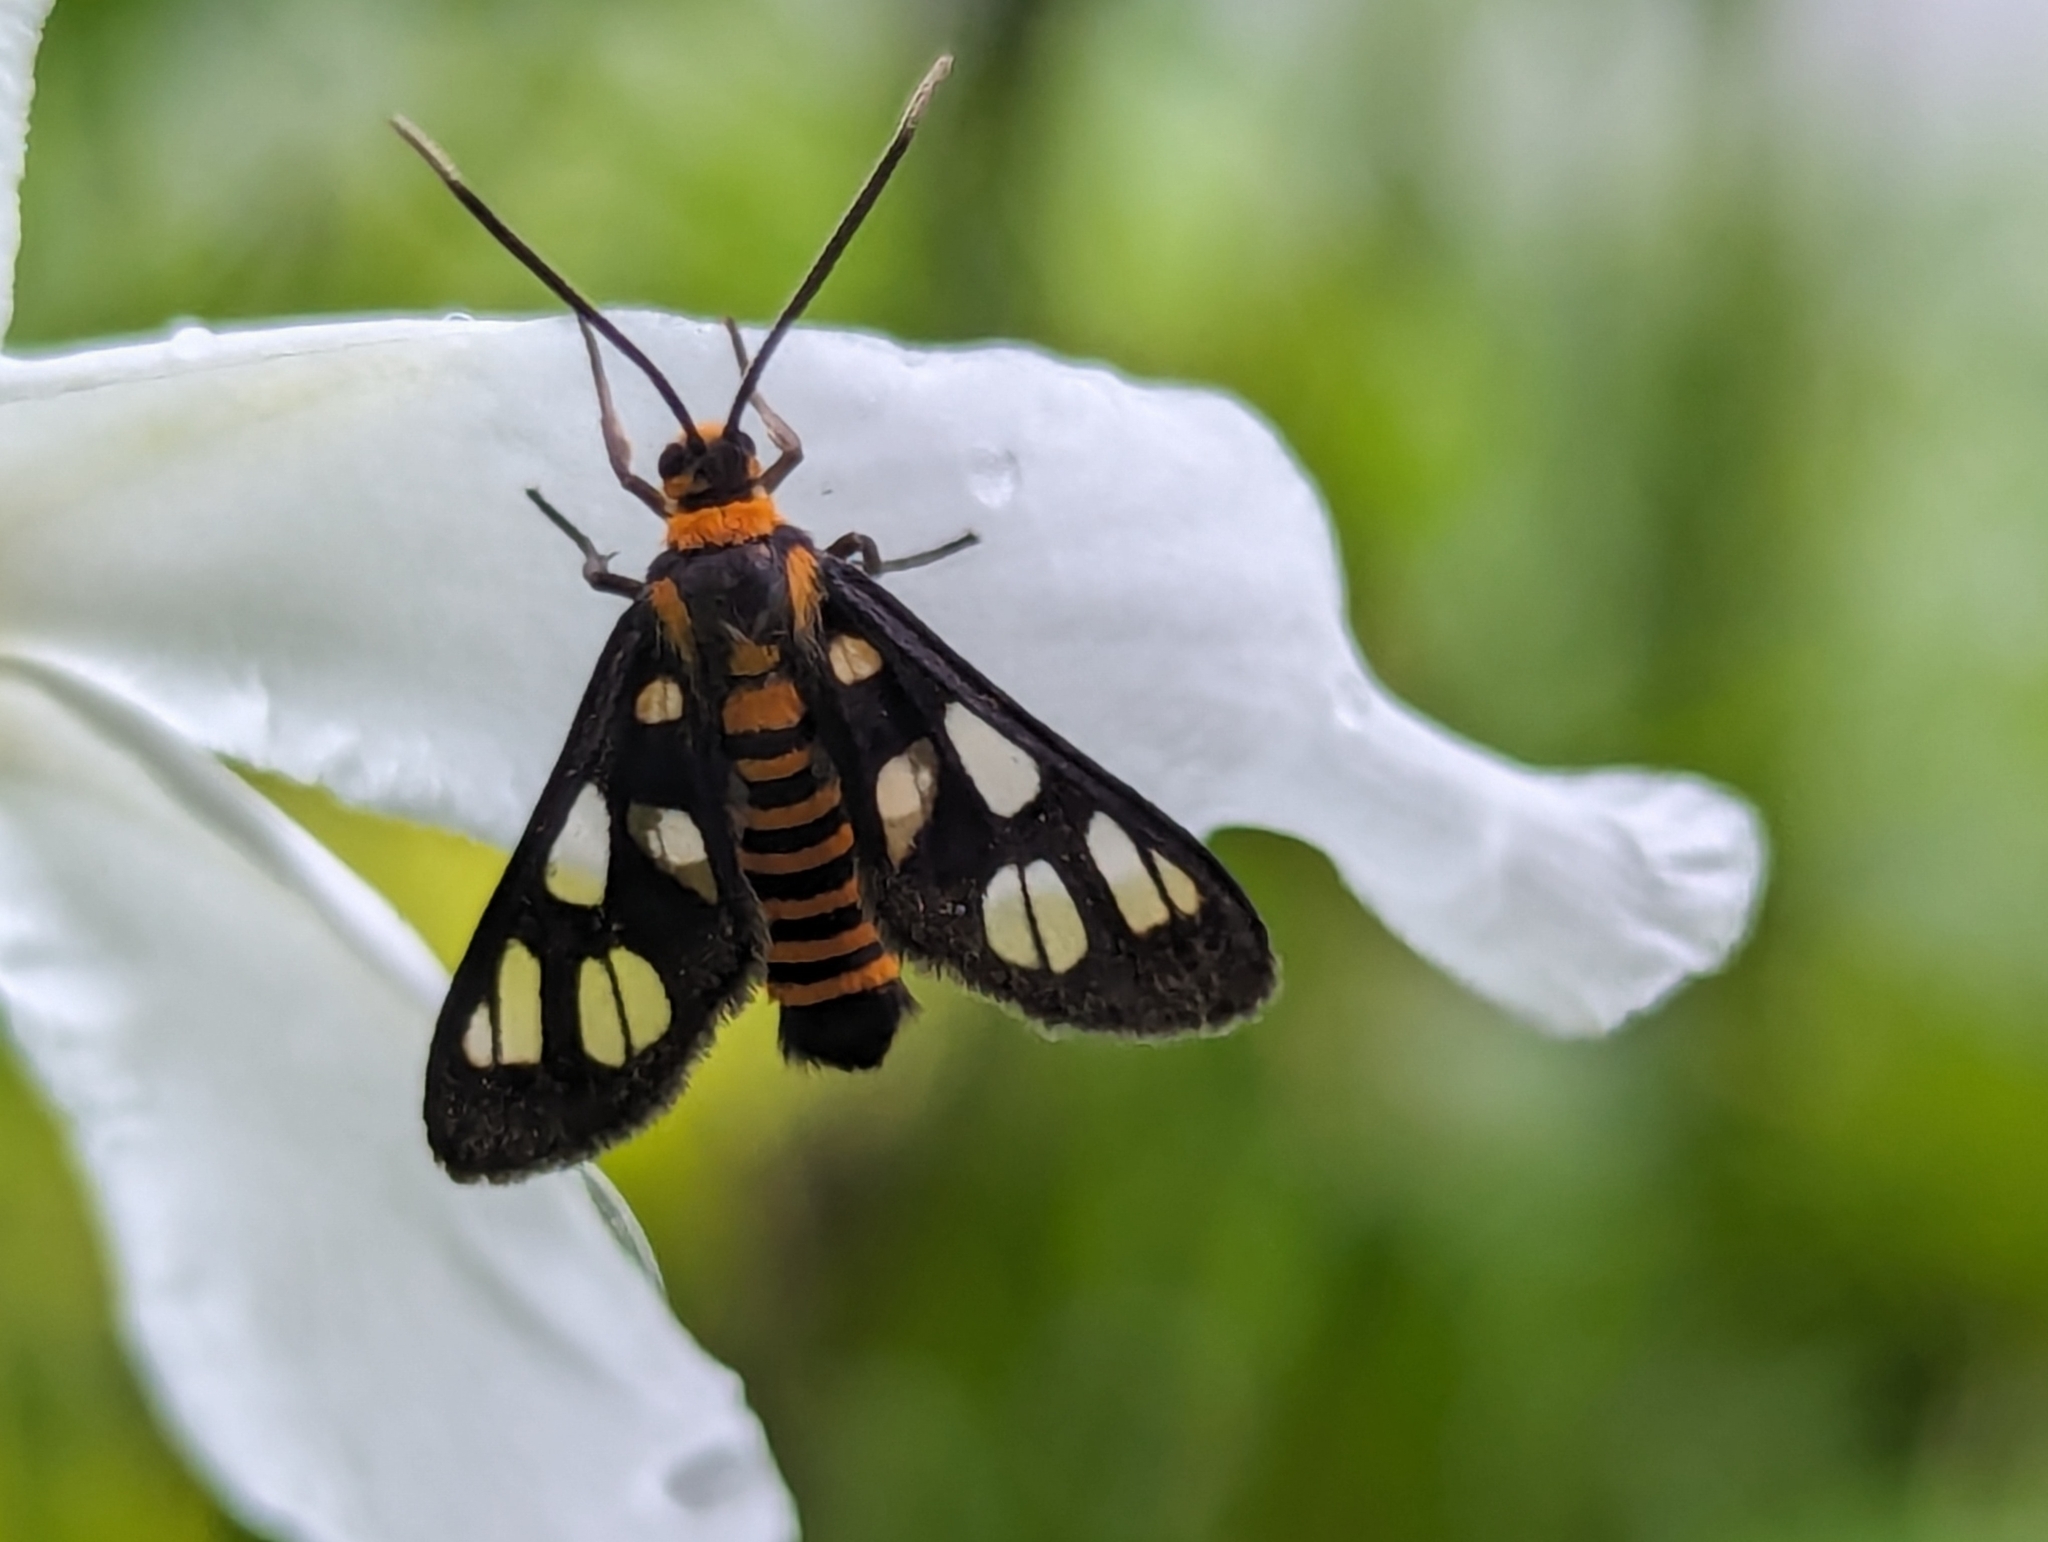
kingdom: Animalia
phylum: Arthropoda
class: Insecta
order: Lepidoptera
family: Erebidae
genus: Amata
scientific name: Amata huebneri
